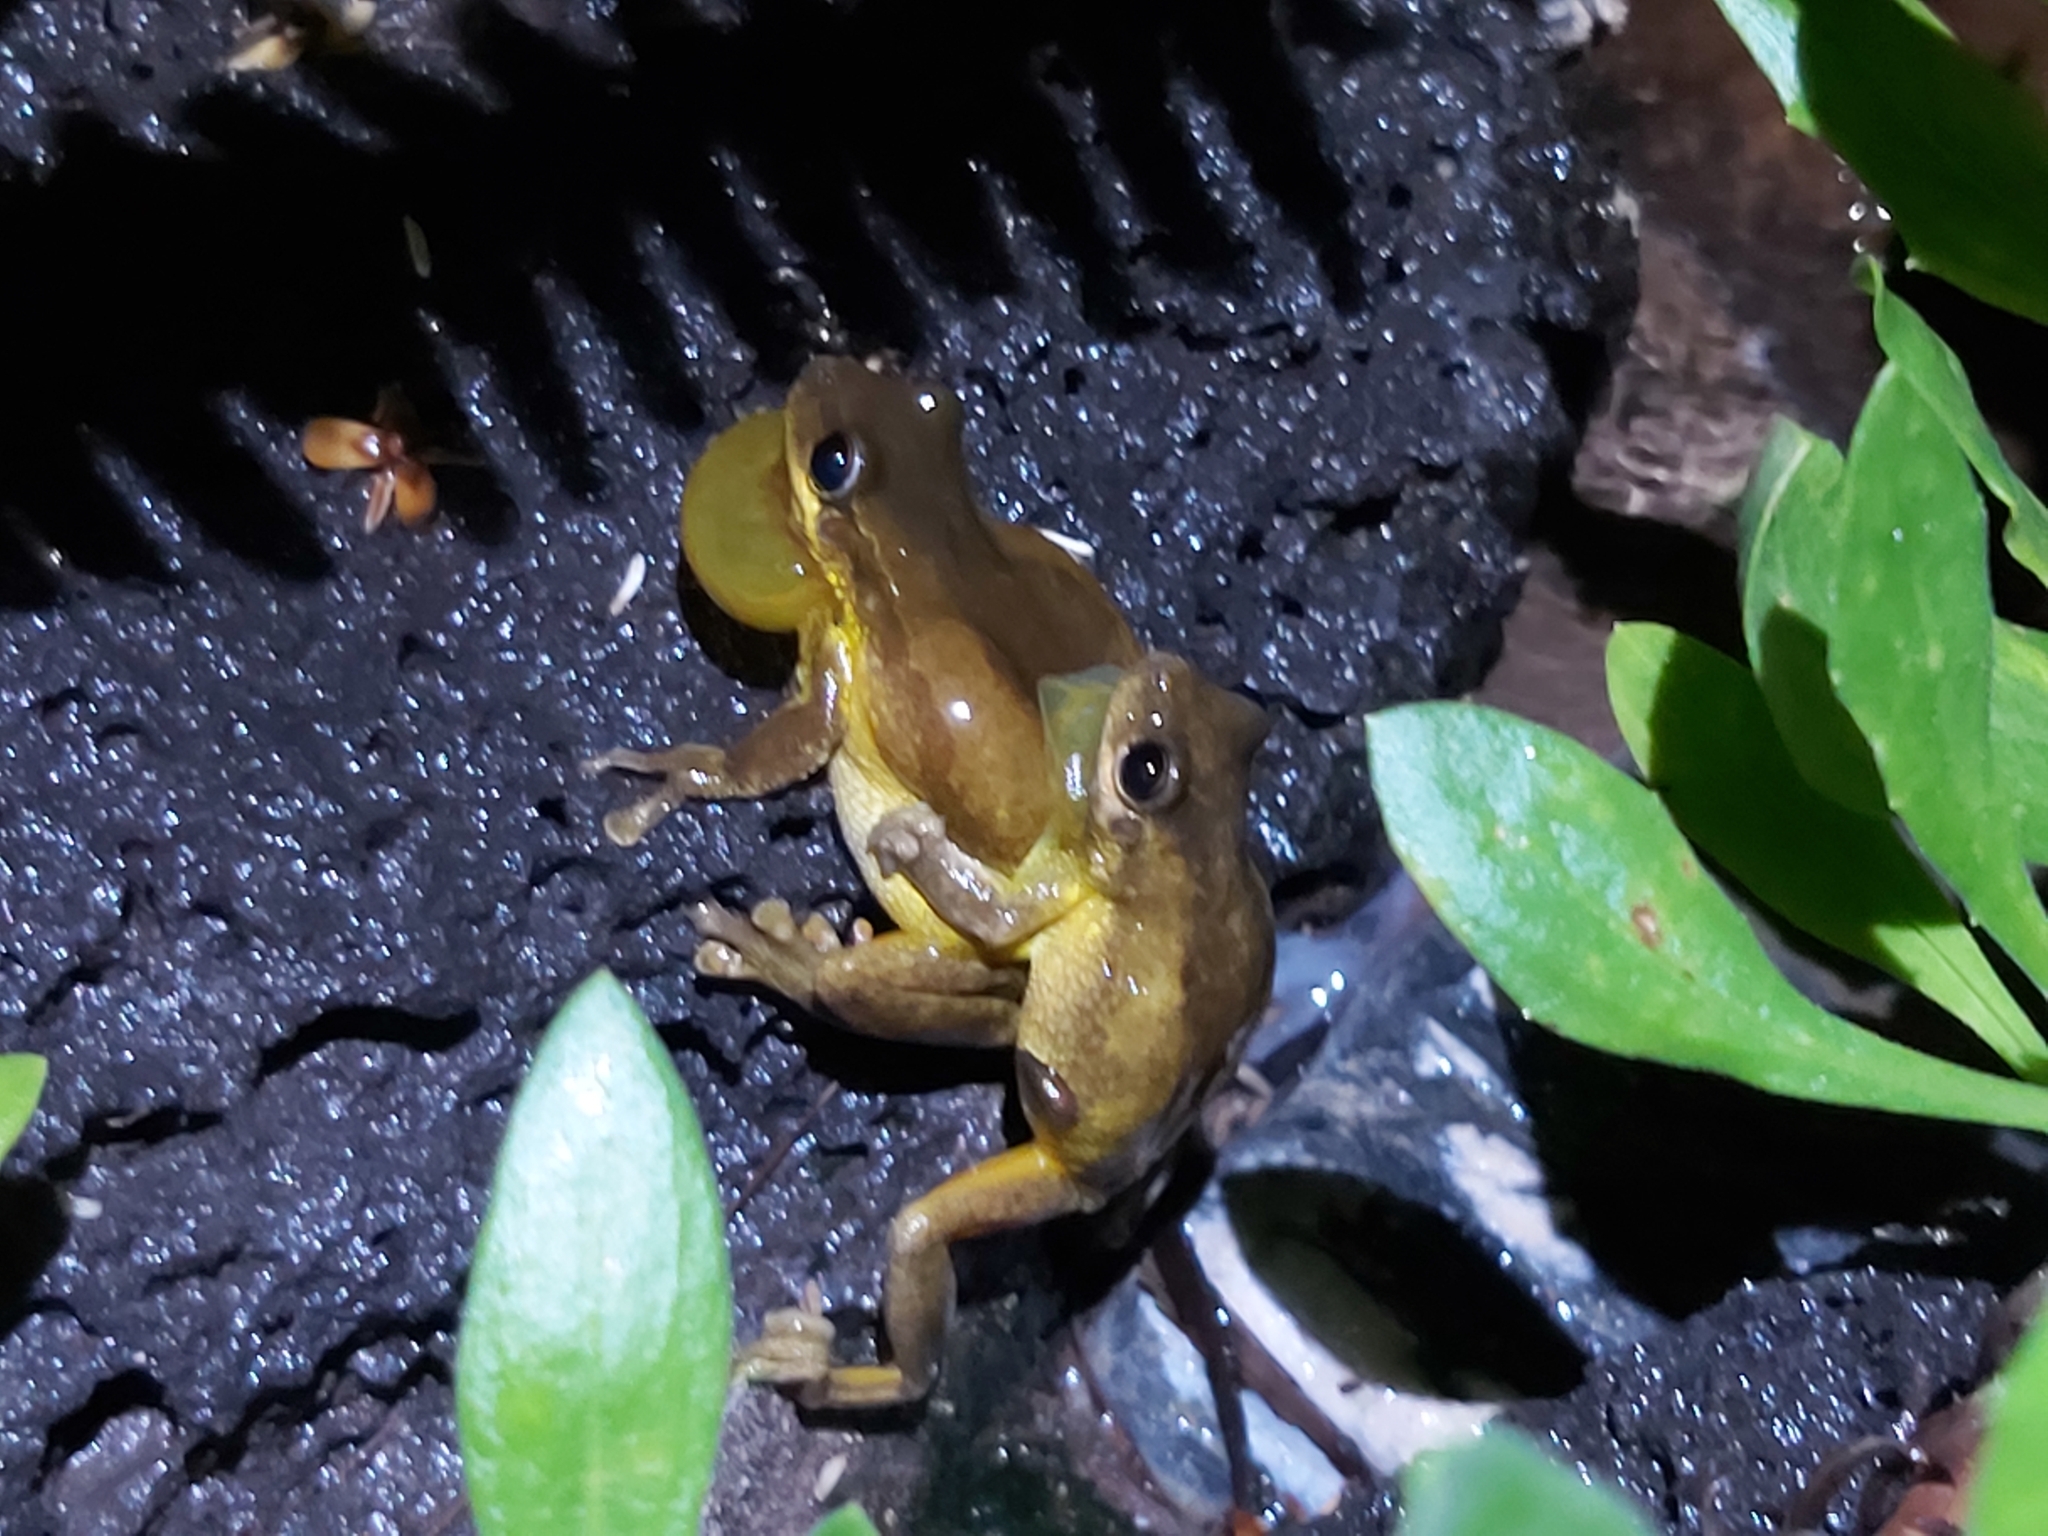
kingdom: Animalia
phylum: Chordata
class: Amphibia
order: Anura
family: Pelodryadidae
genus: Litoria
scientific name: Litoria quiritatus
